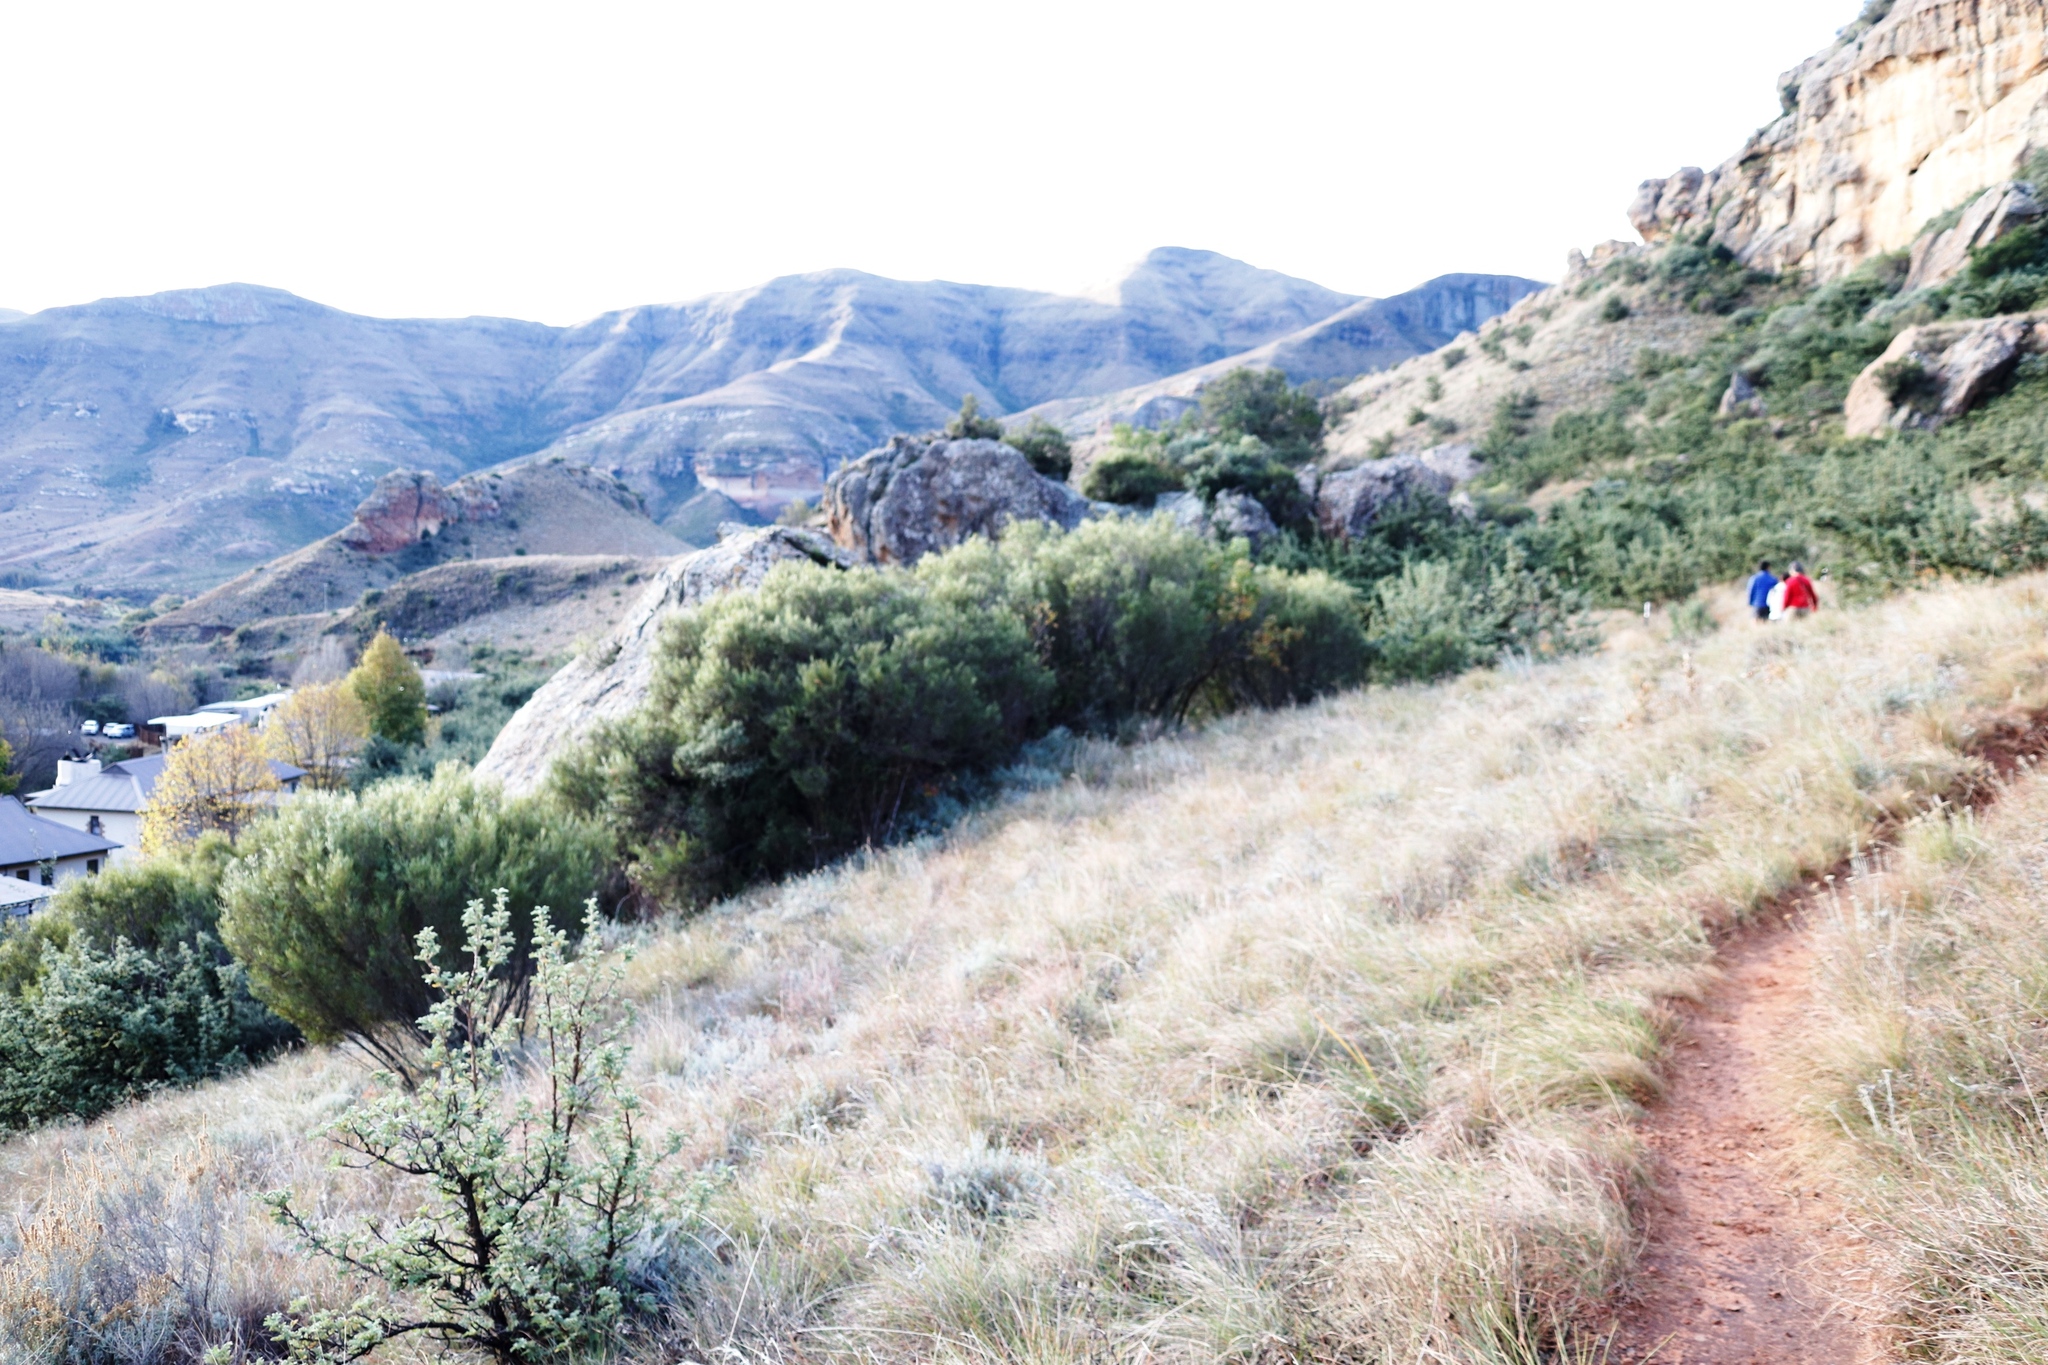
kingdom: Plantae
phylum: Tracheophyta
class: Magnoliopsida
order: Sapindales
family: Anacardiaceae
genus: Searsia
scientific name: Searsia erosa
